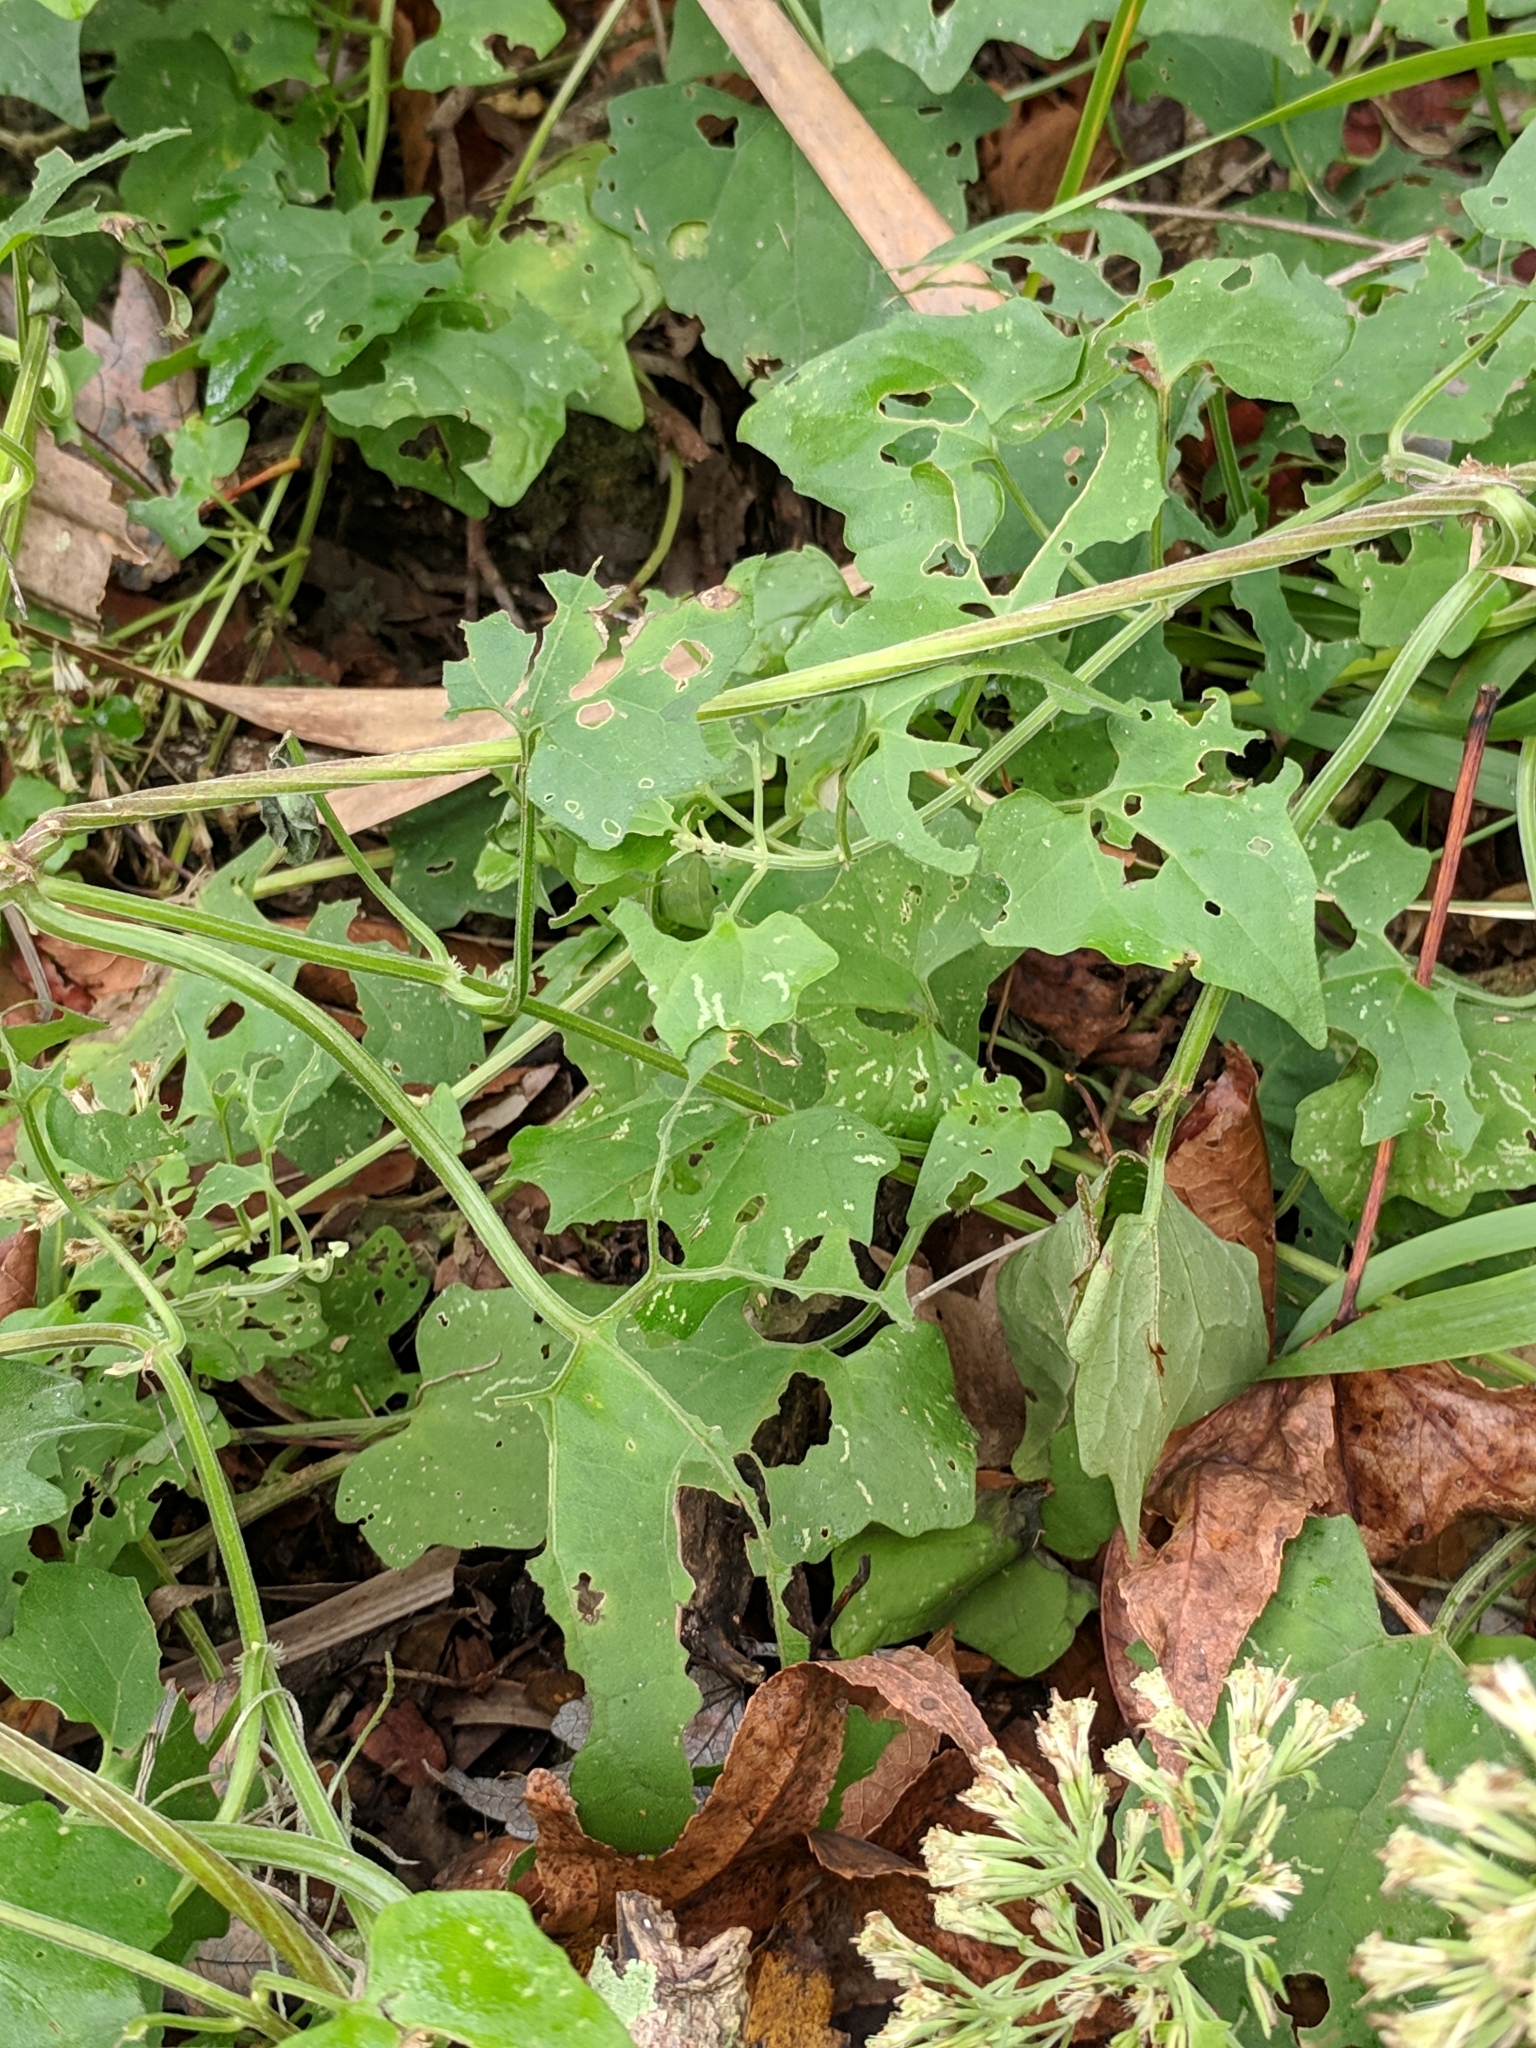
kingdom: Plantae
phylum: Tracheophyta
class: Magnoliopsida
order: Asterales
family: Asteraceae
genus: Mikania
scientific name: Mikania cordifolia
